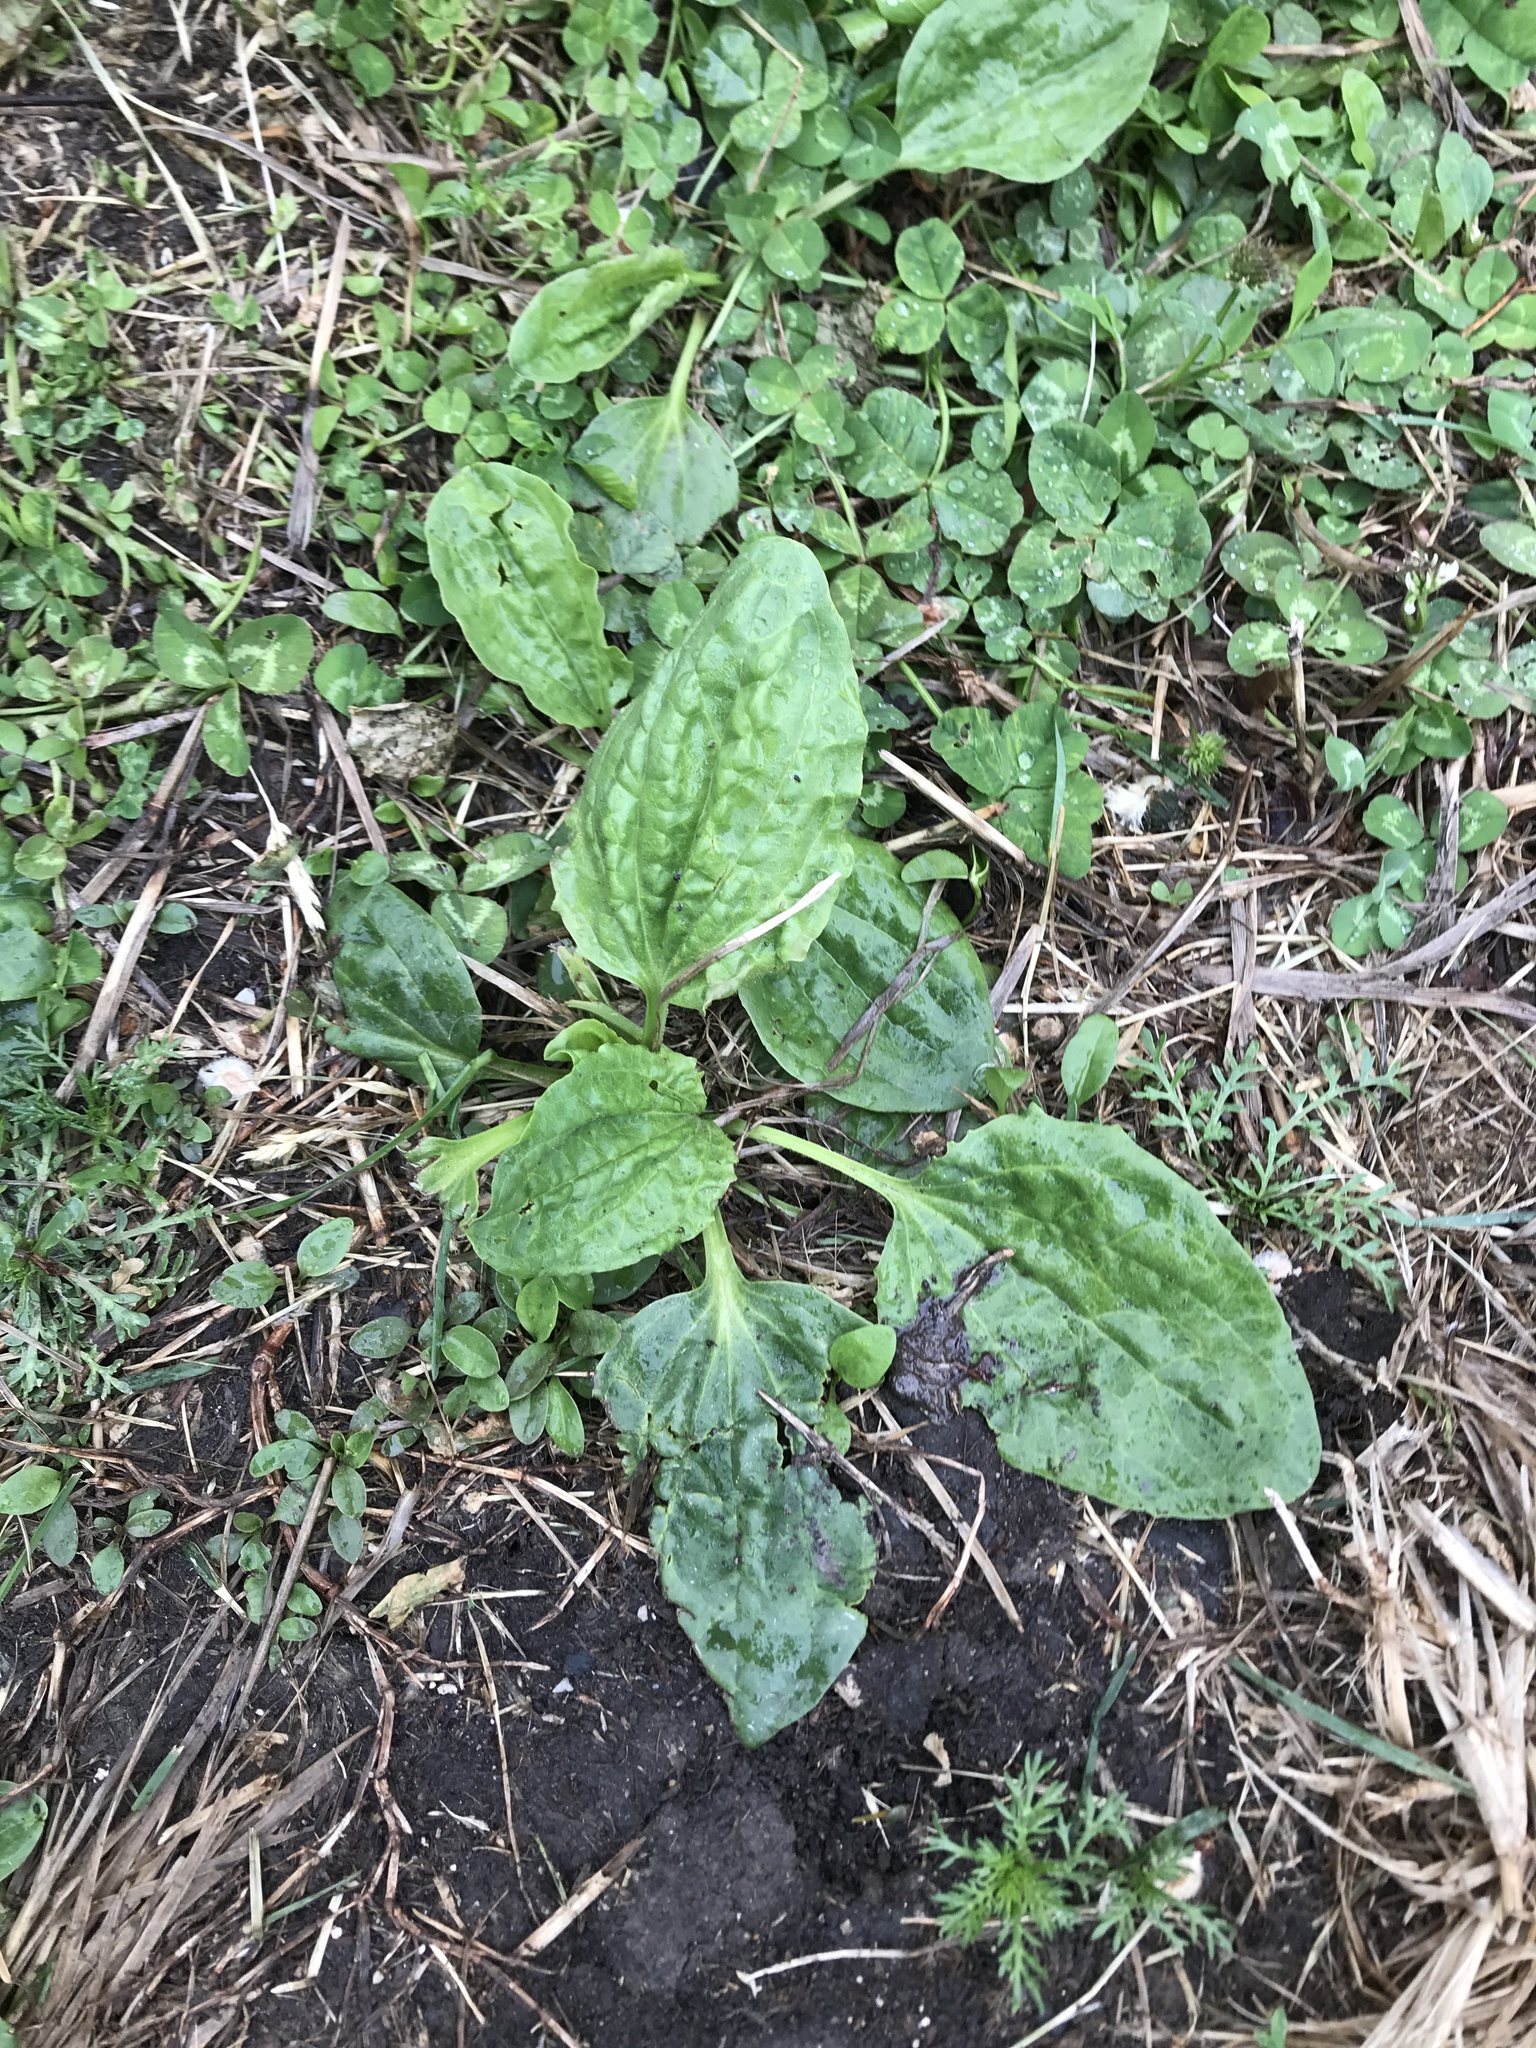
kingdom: Plantae
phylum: Tracheophyta
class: Magnoliopsida
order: Lamiales
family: Plantaginaceae
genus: Plantago
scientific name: Plantago major
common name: Common plantain
